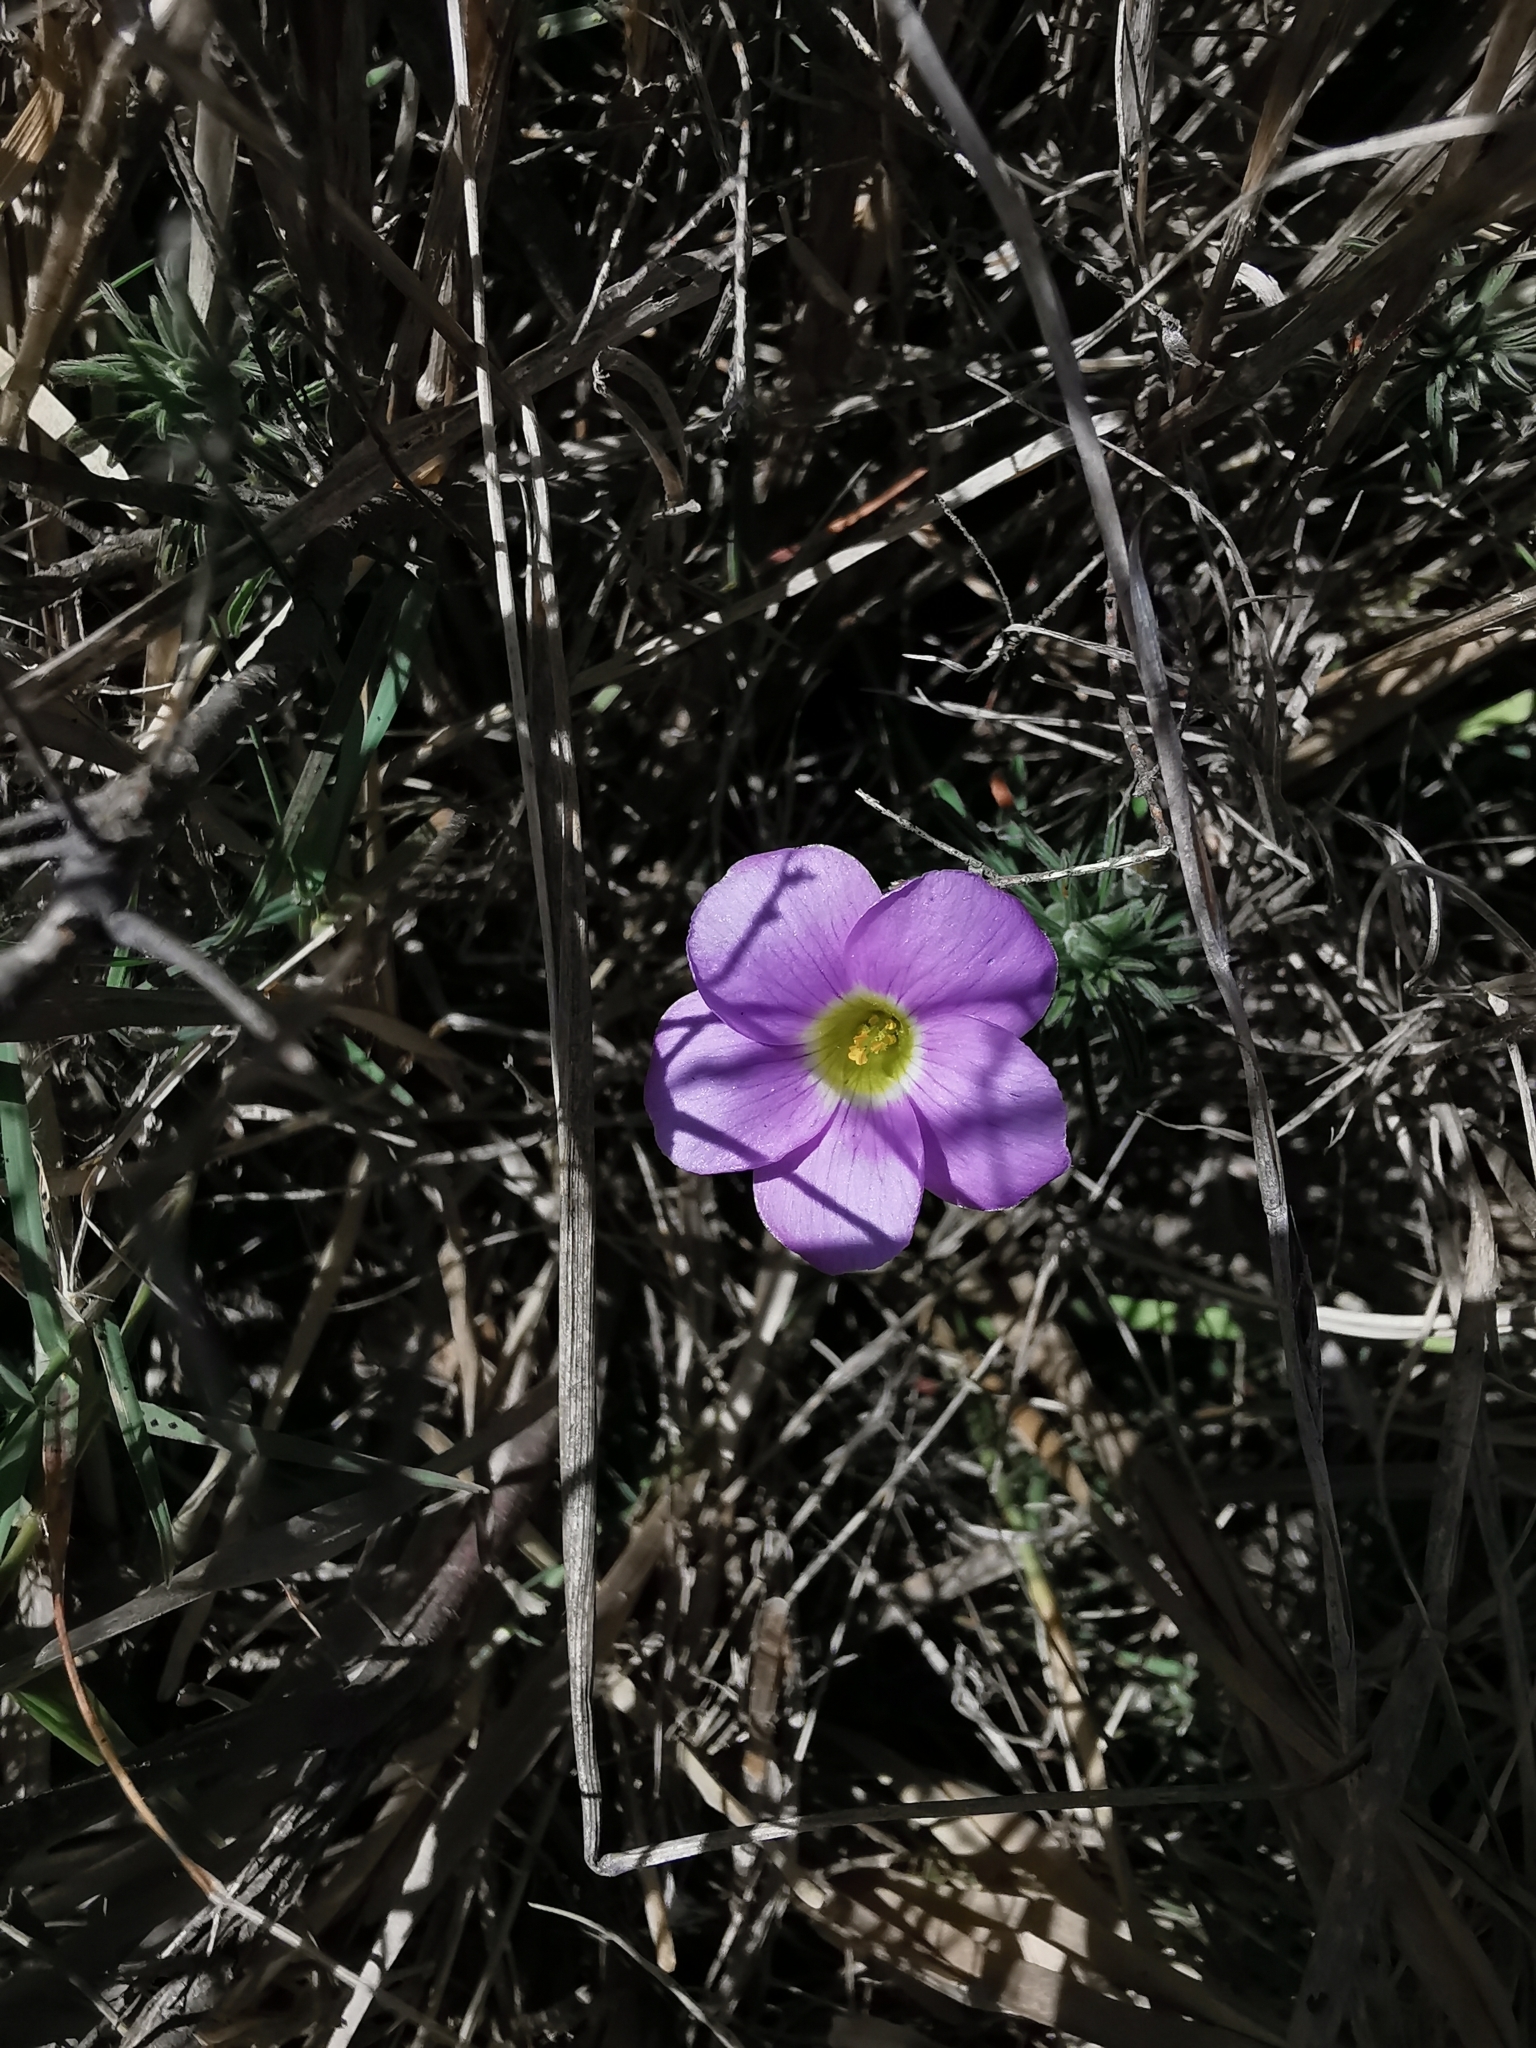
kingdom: Plantae
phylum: Tracheophyta
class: Magnoliopsida
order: Oxalidales
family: Oxalidaceae
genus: Oxalis
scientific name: Oxalis hirta
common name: Tropical woodsorrel
